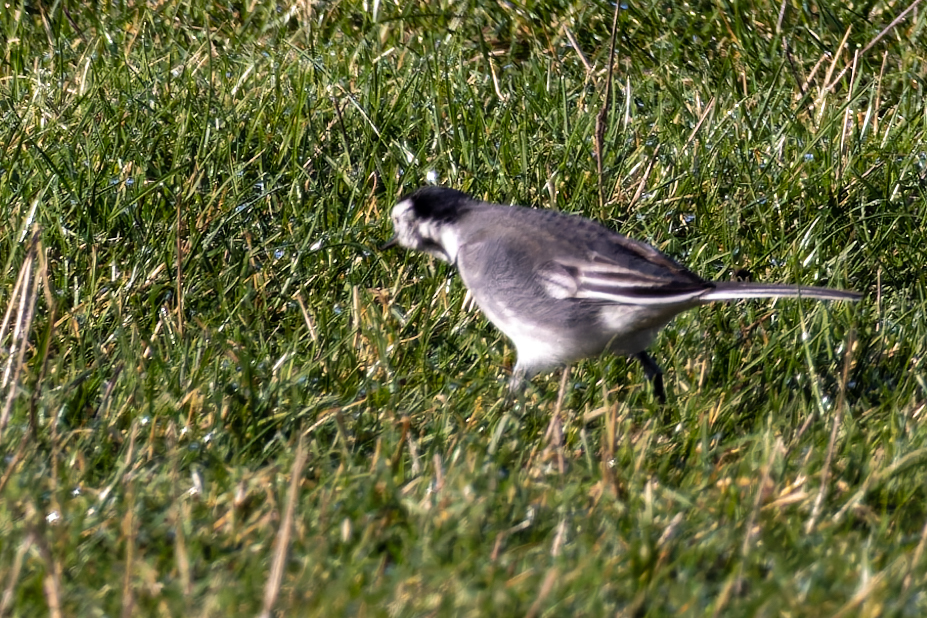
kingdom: Animalia
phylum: Chordata
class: Aves
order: Passeriformes
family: Motacillidae
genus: Motacilla
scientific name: Motacilla alba
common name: White wagtail
